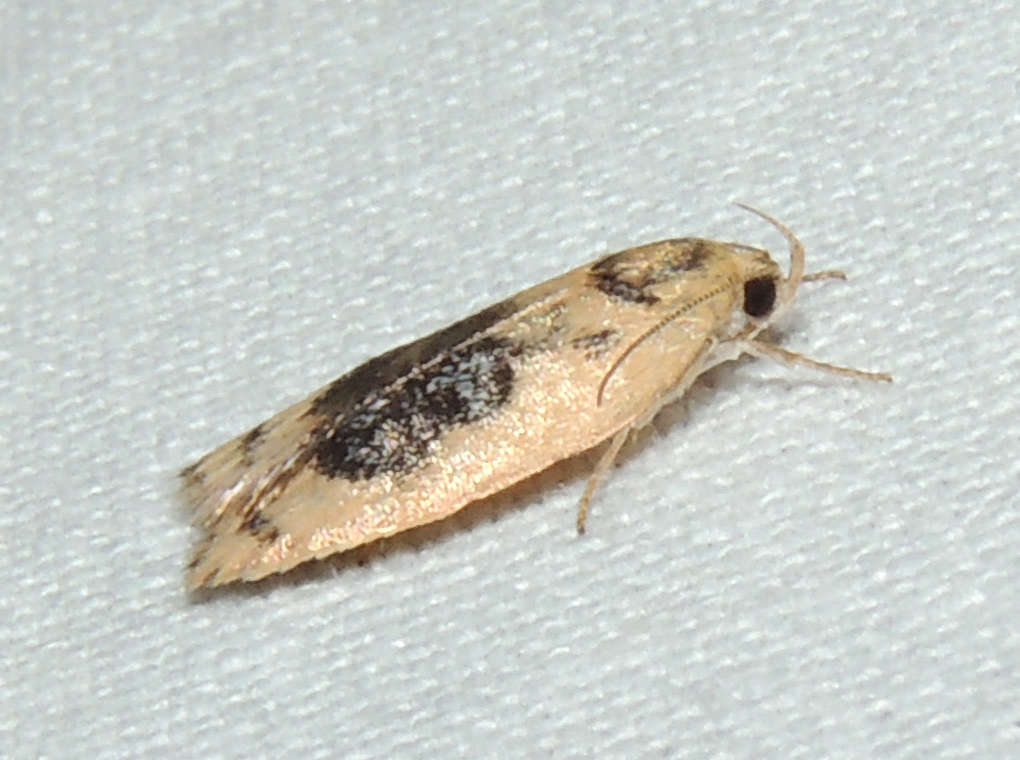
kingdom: Animalia
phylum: Arthropoda
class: Insecta
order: Lepidoptera
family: Oecophoridae
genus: Garrha
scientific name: Garrha ocellifera
